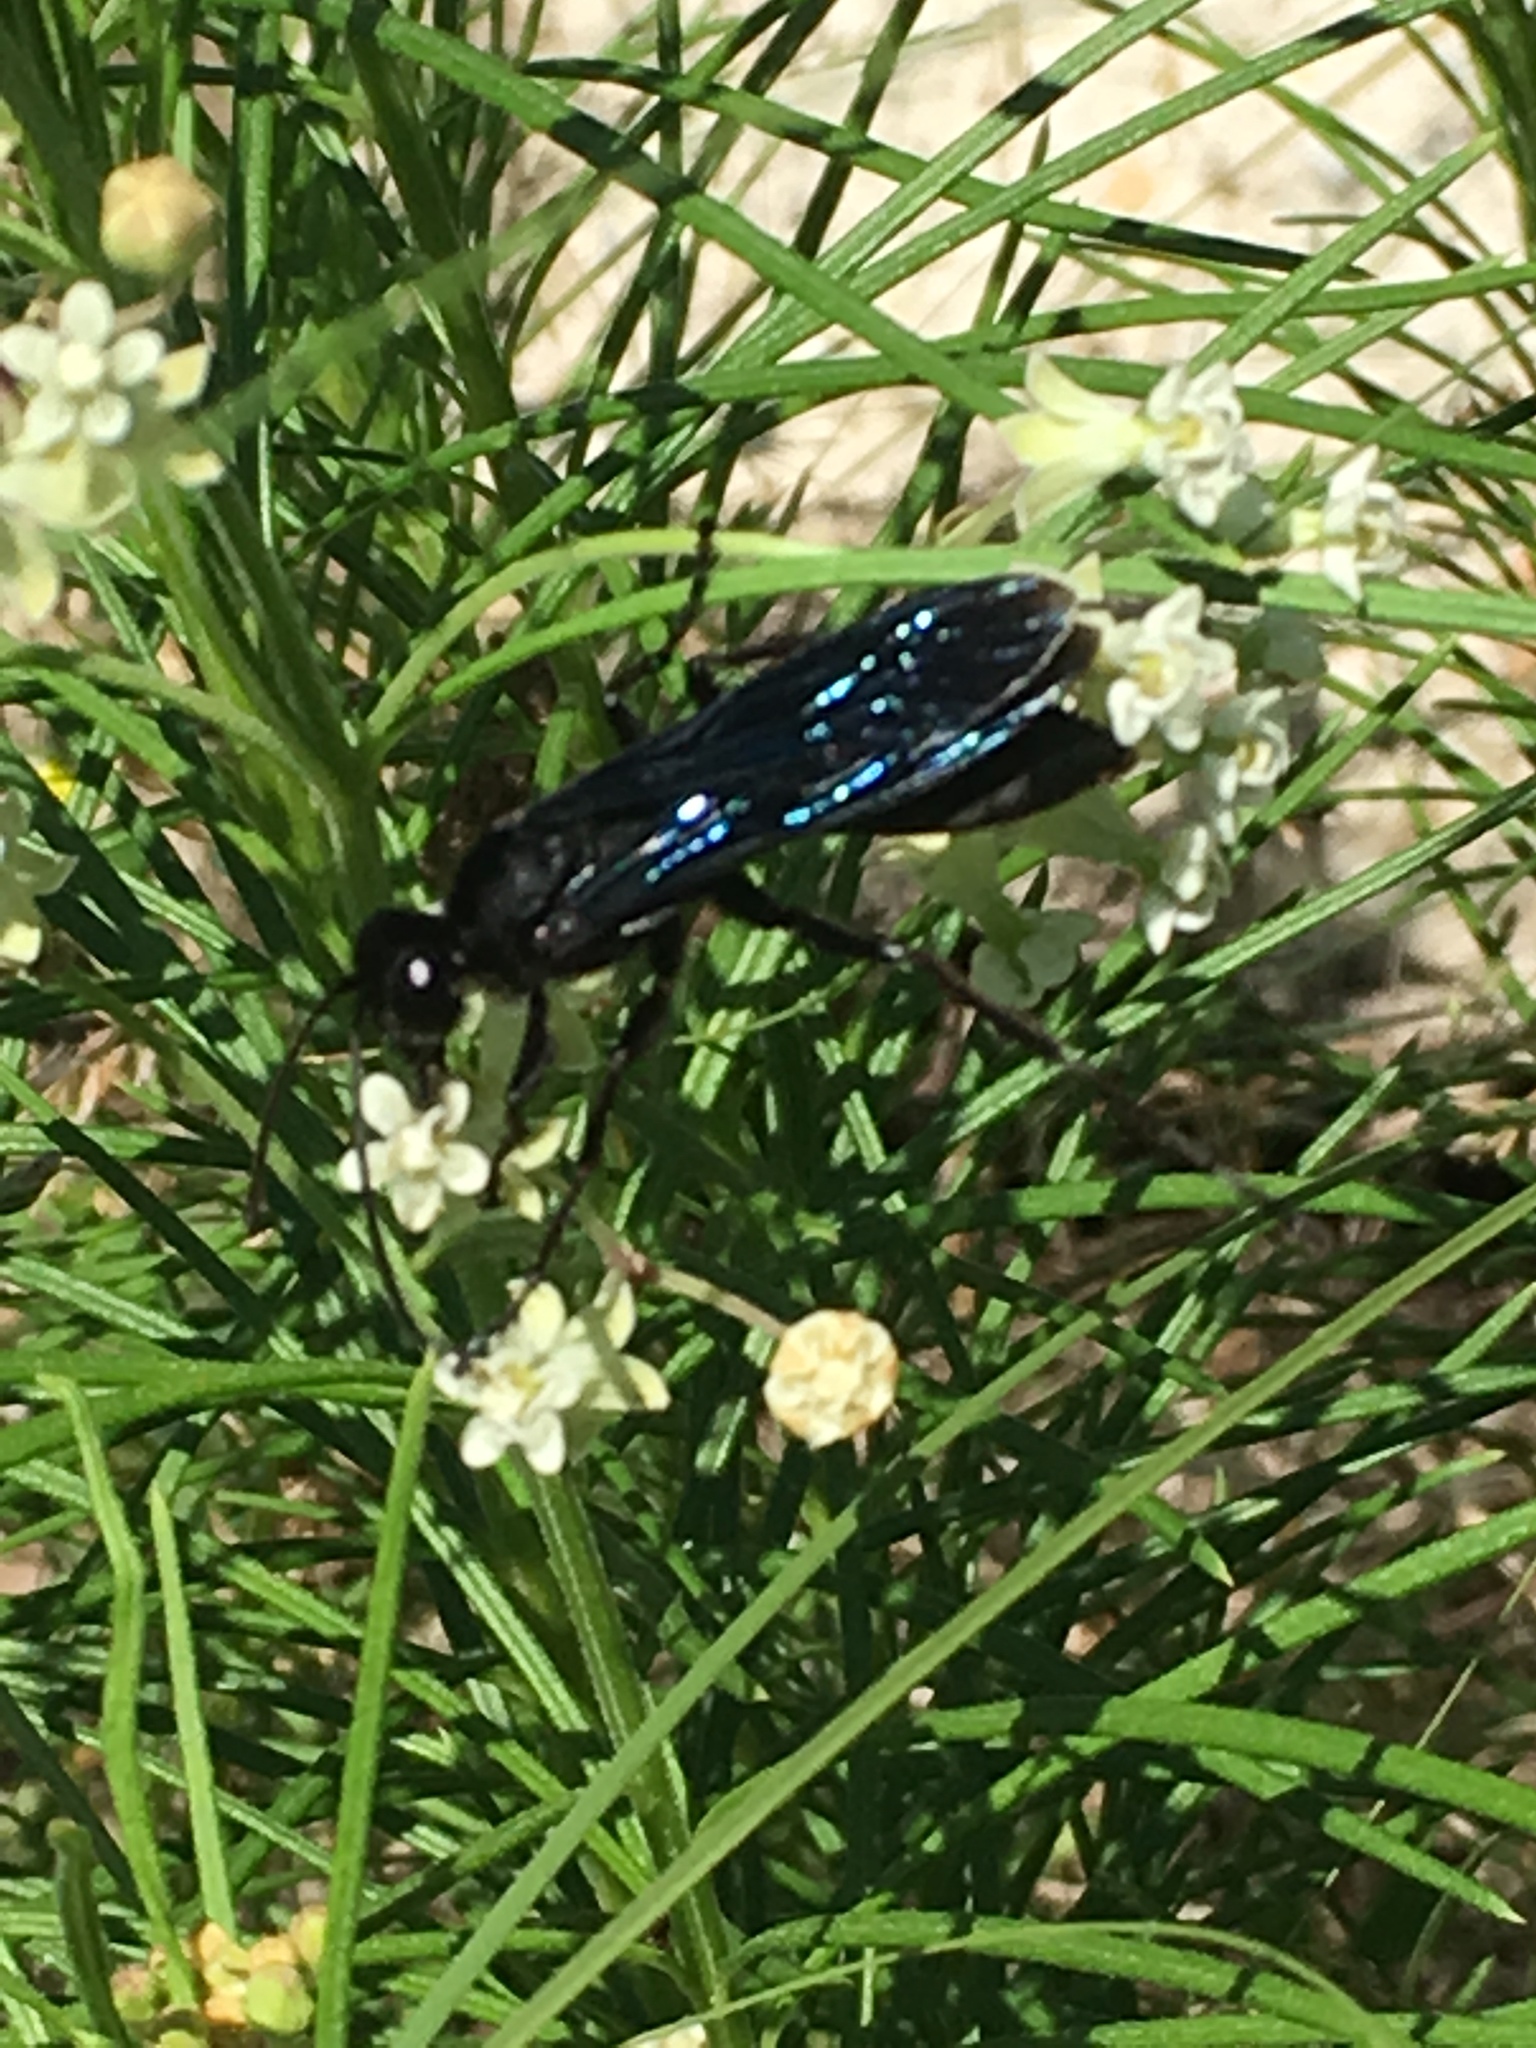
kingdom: Animalia
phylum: Arthropoda
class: Insecta
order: Hymenoptera
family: Sphecidae
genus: Sphex
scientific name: Sphex pensylvanicus
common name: Great black digger wasp
